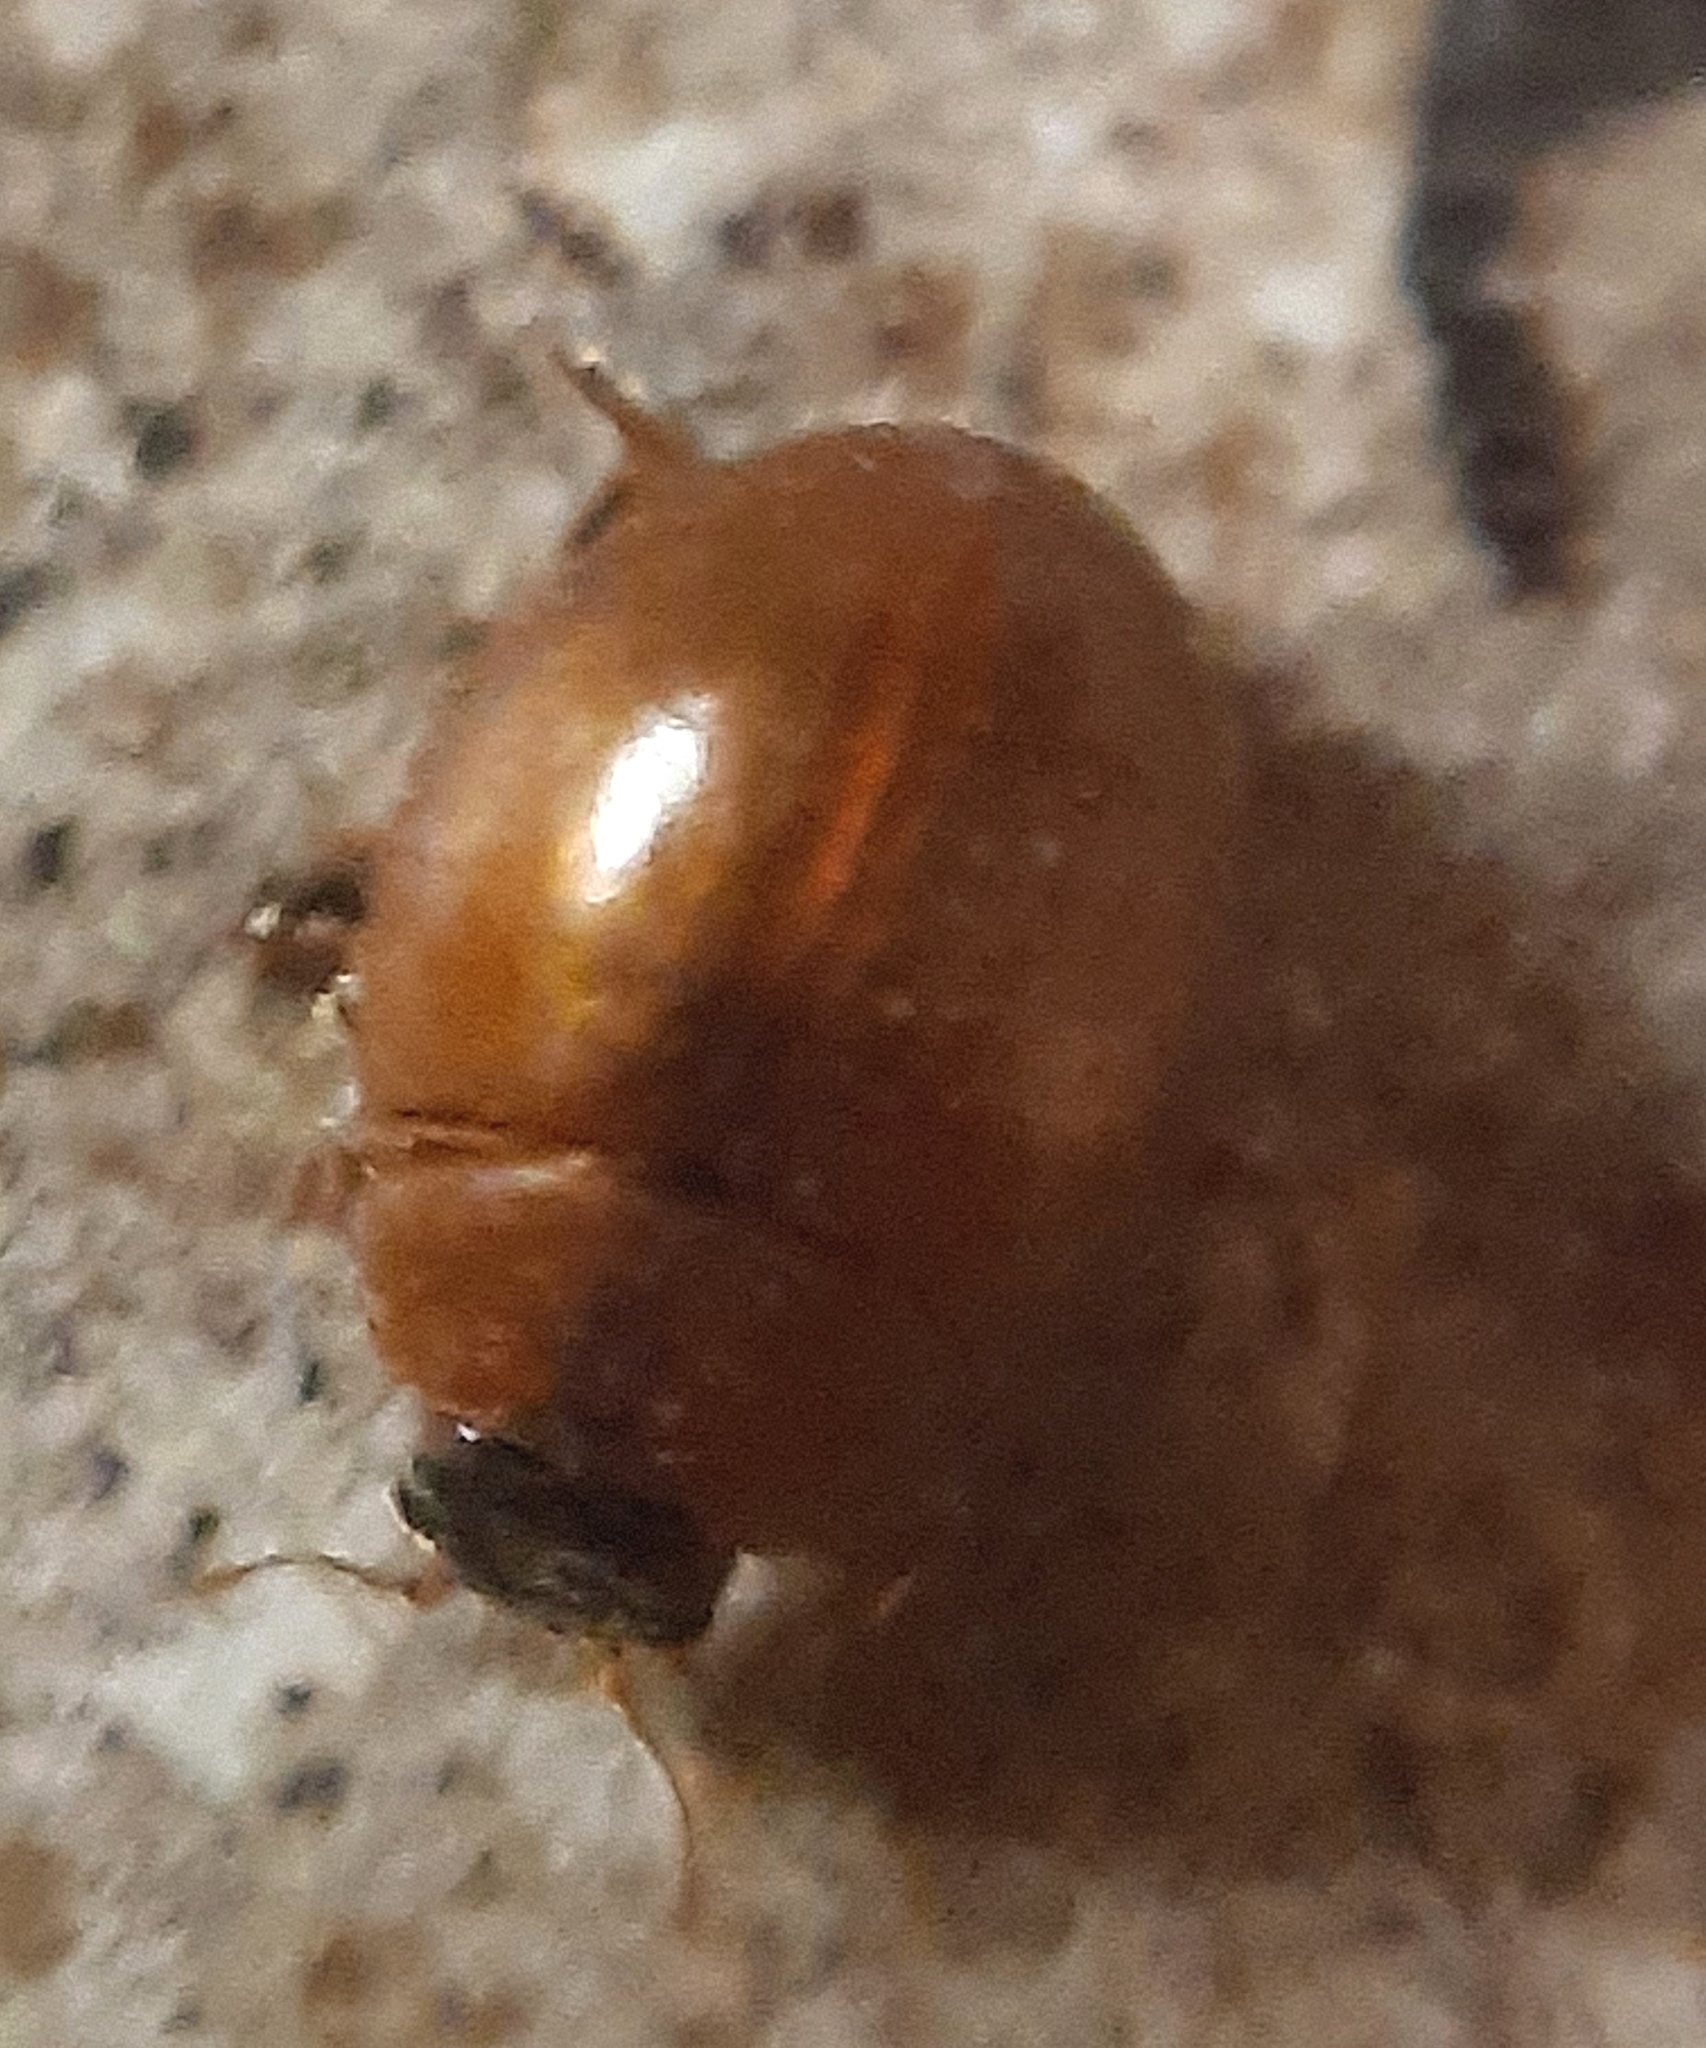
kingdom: Animalia
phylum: Arthropoda
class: Insecta
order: Coleoptera
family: Coccinellidae
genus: Cynegetis
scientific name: Cynegetis impunctata
